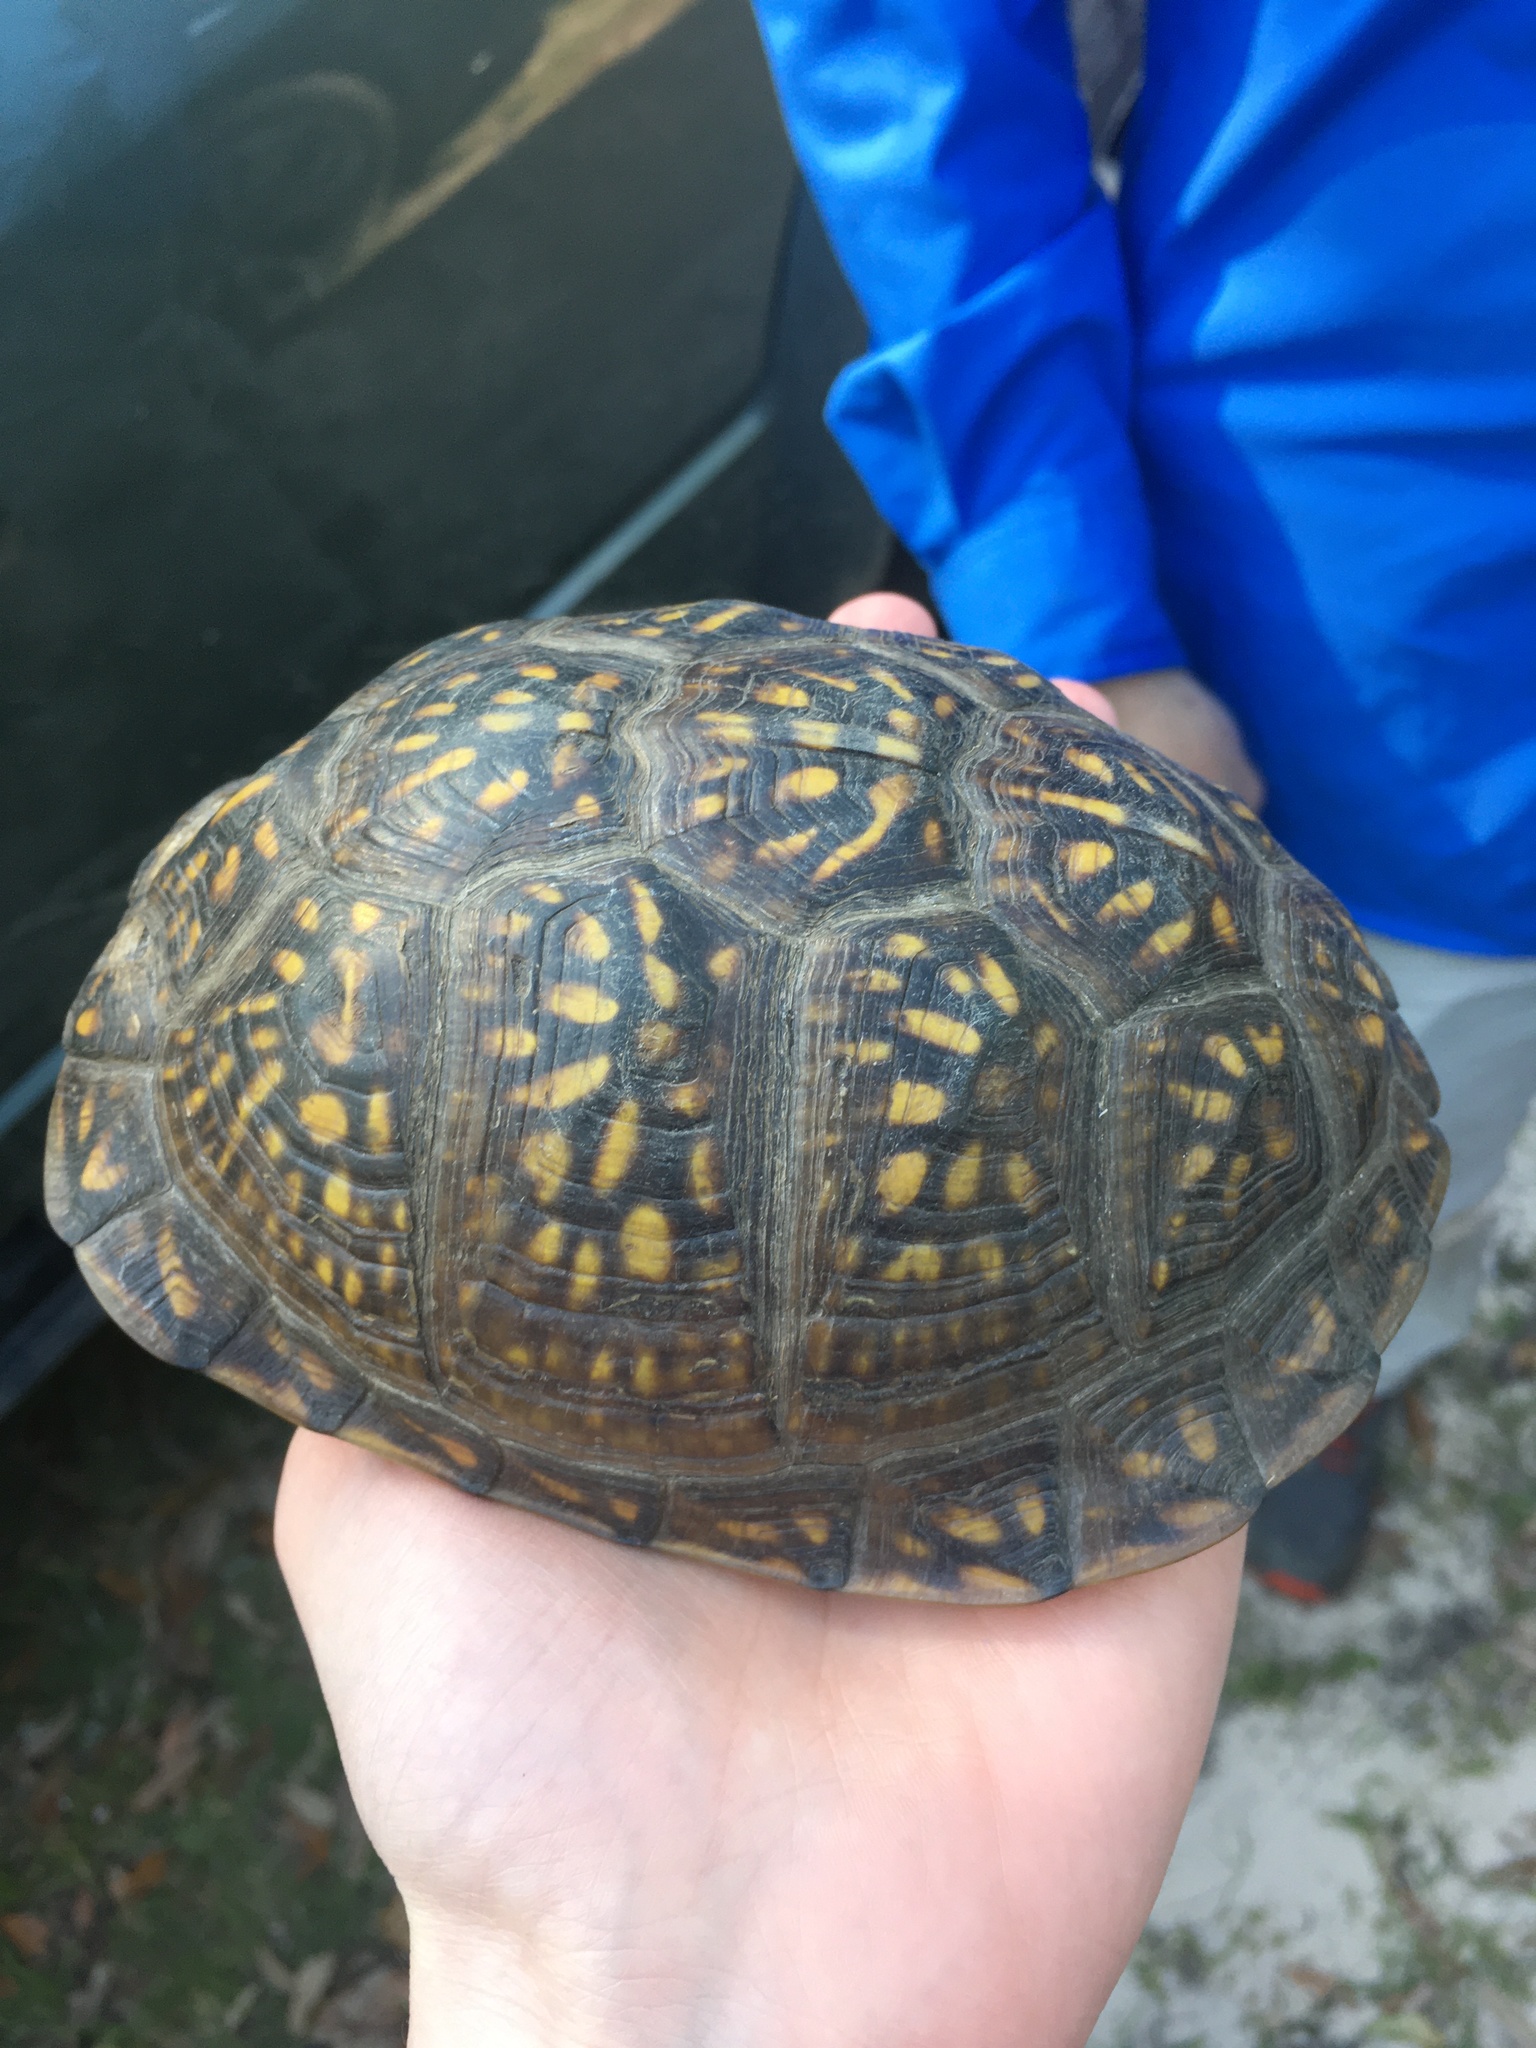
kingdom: Animalia
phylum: Chordata
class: Testudines
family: Emydidae
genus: Terrapene
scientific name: Terrapene carolina
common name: Common box turtle
